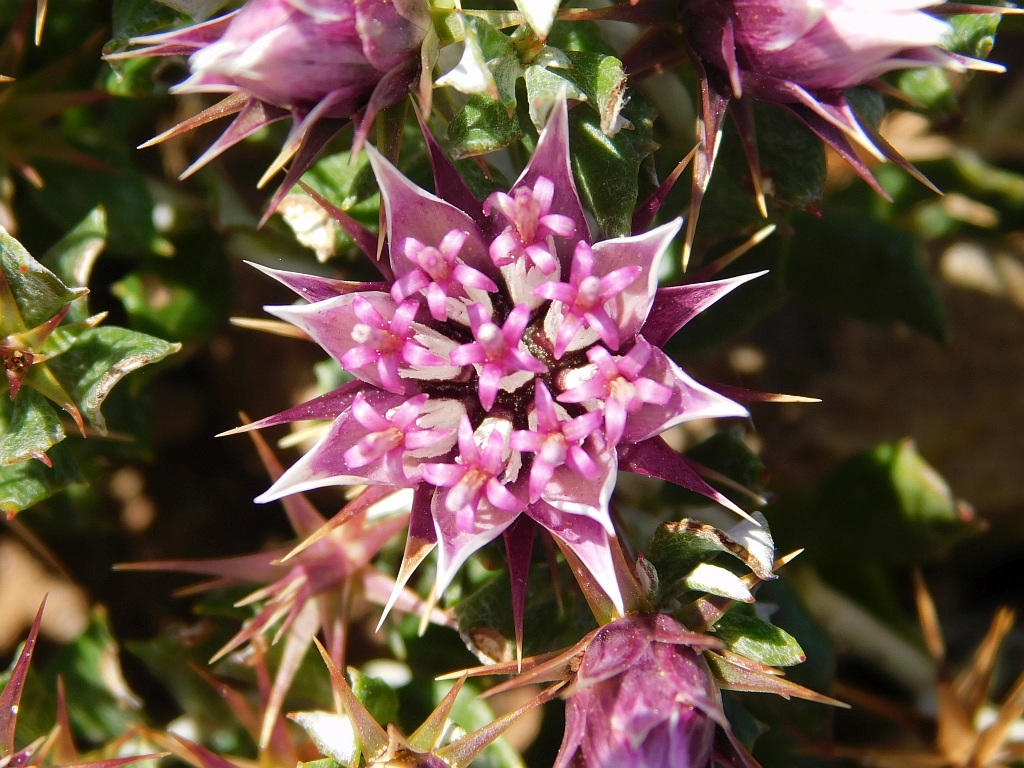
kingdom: Plantae
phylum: Tracheophyta
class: Magnoliopsida
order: Asterales
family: Asteraceae
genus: Macledium
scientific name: Macledium spinosum
